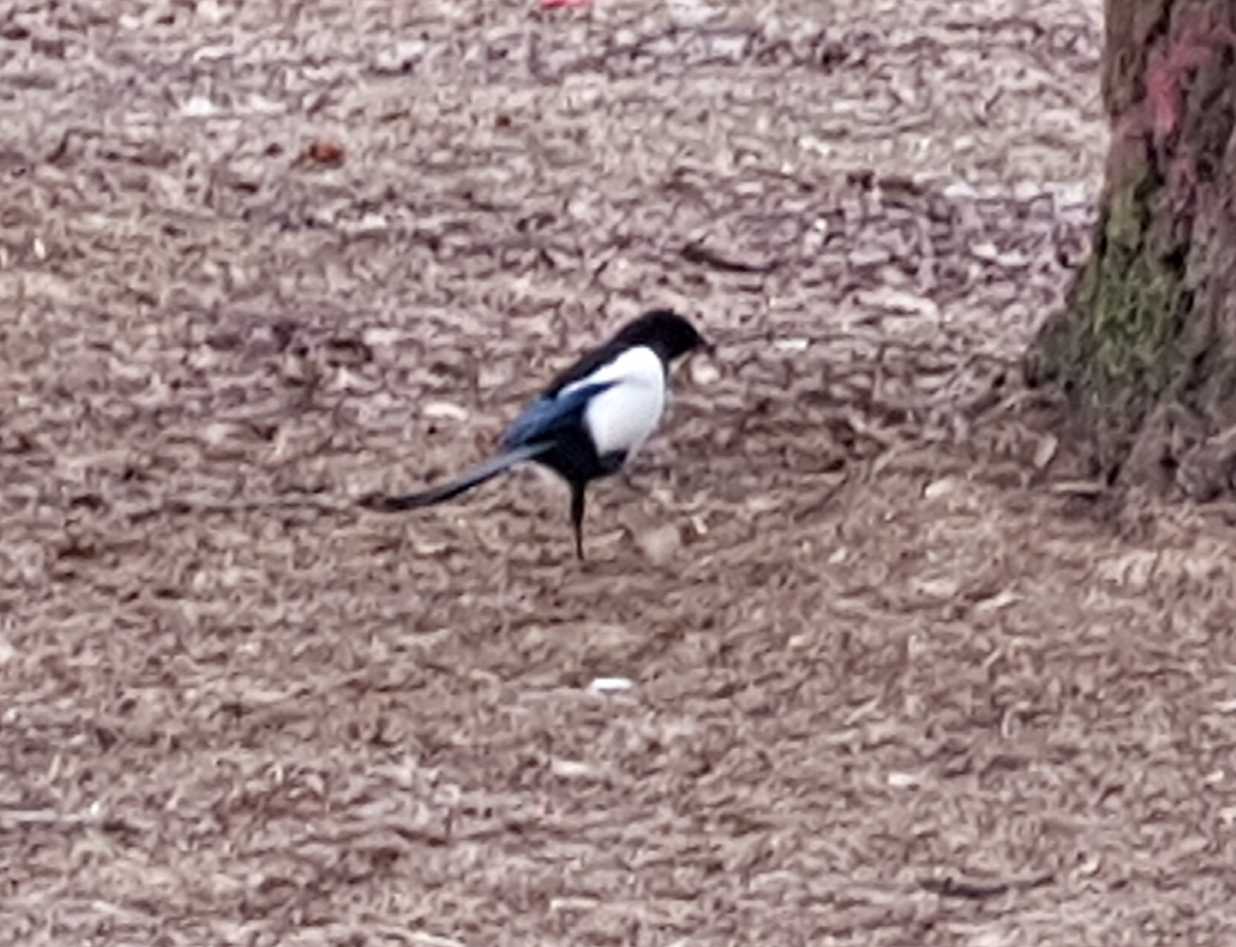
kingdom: Animalia
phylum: Chordata
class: Aves
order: Passeriformes
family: Corvidae
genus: Pica
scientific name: Pica pica
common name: Eurasian magpie
